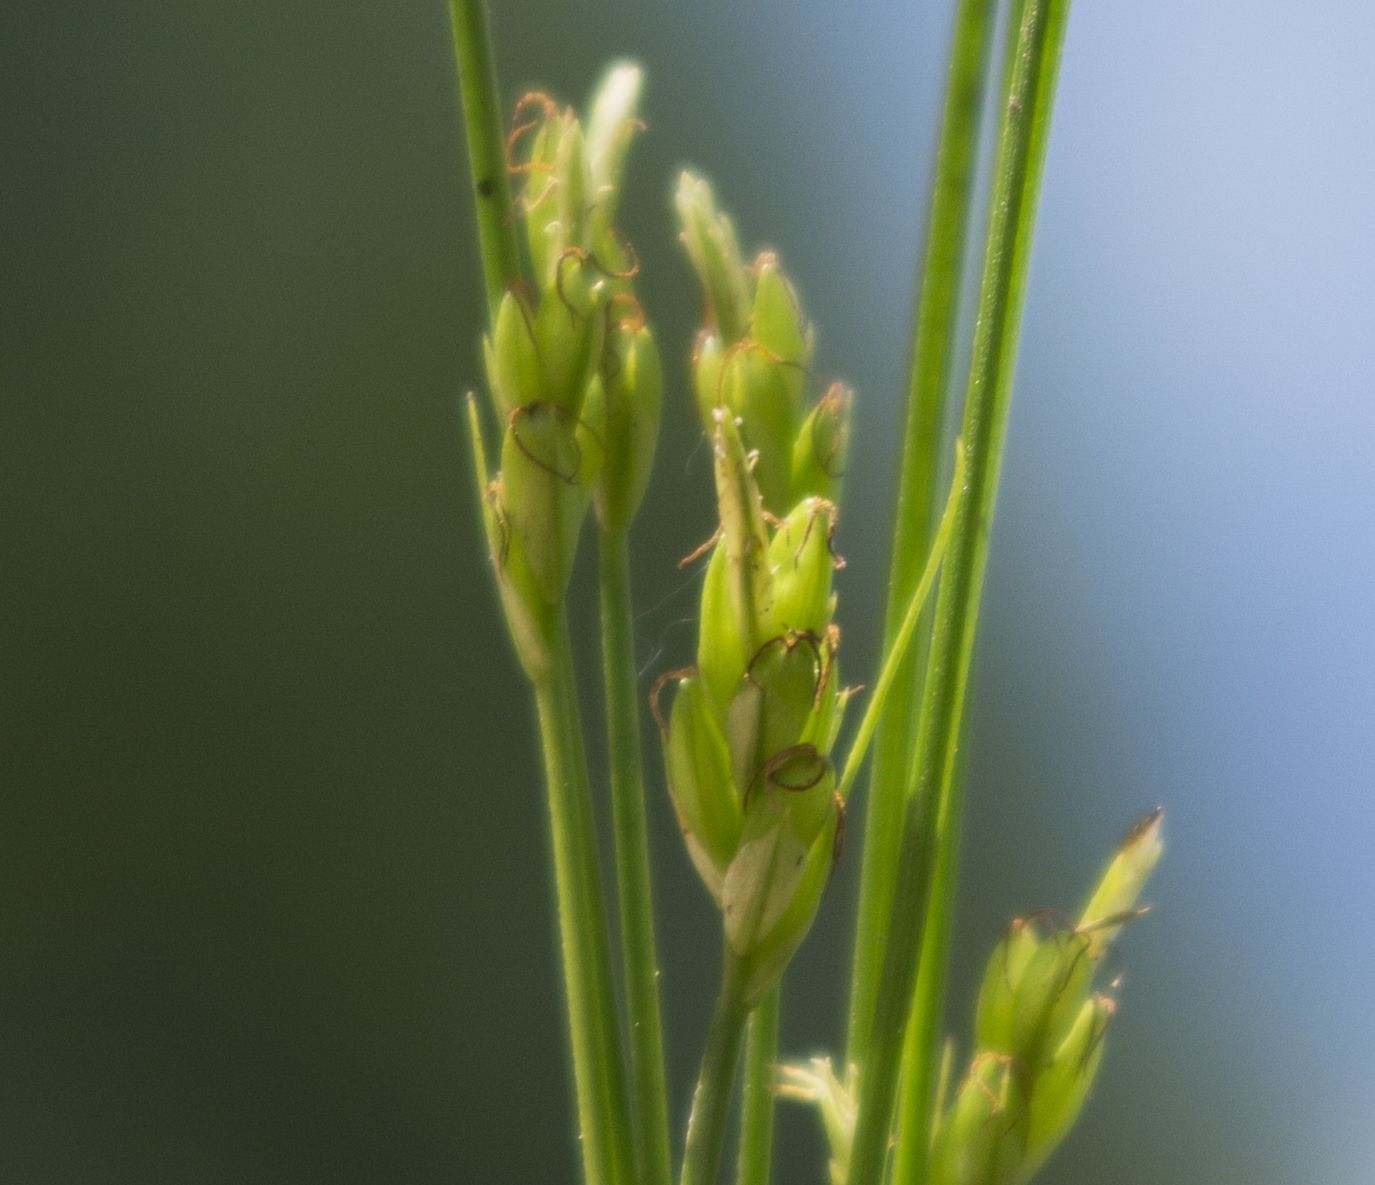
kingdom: Plantae
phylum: Tracheophyta
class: Liliopsida
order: Poales
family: Cyperaceae
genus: Carex
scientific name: Carex leptalea
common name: Bristly-stalked sedge
